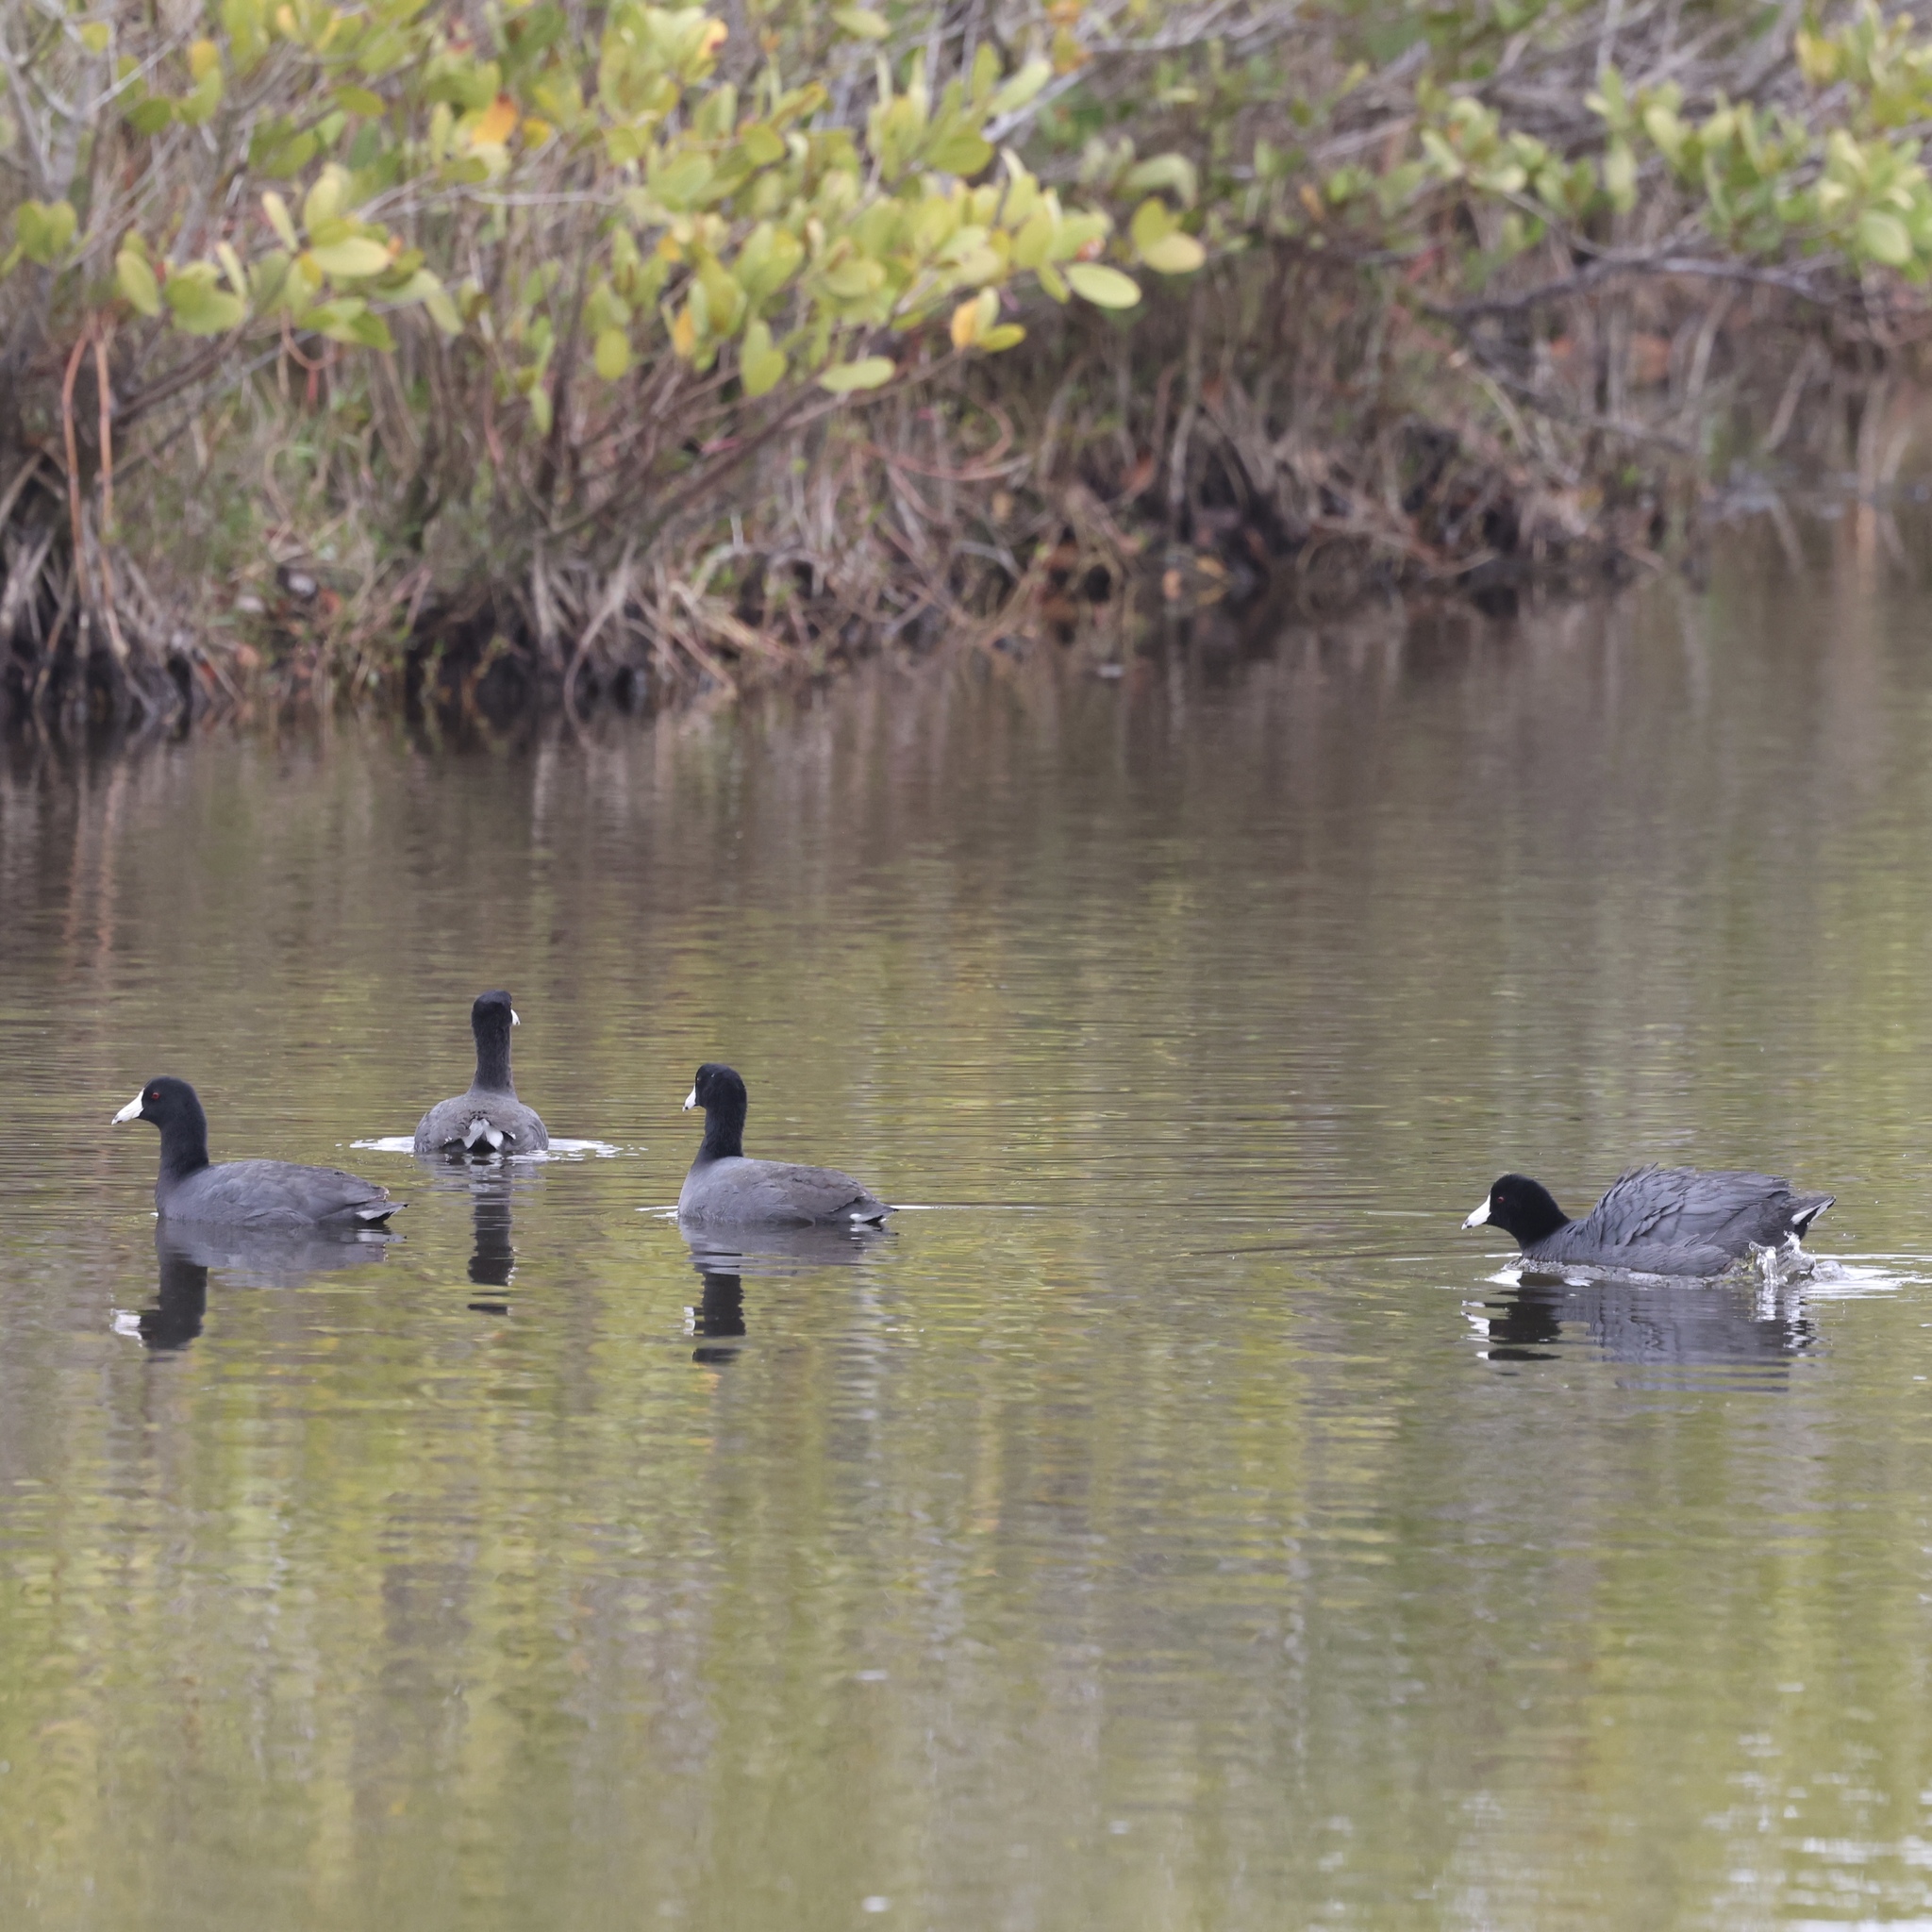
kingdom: Animalia
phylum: Chordata
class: Aves
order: Gruiformes
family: Rallidae
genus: Fulica
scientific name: Fulica americana
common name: American coot
